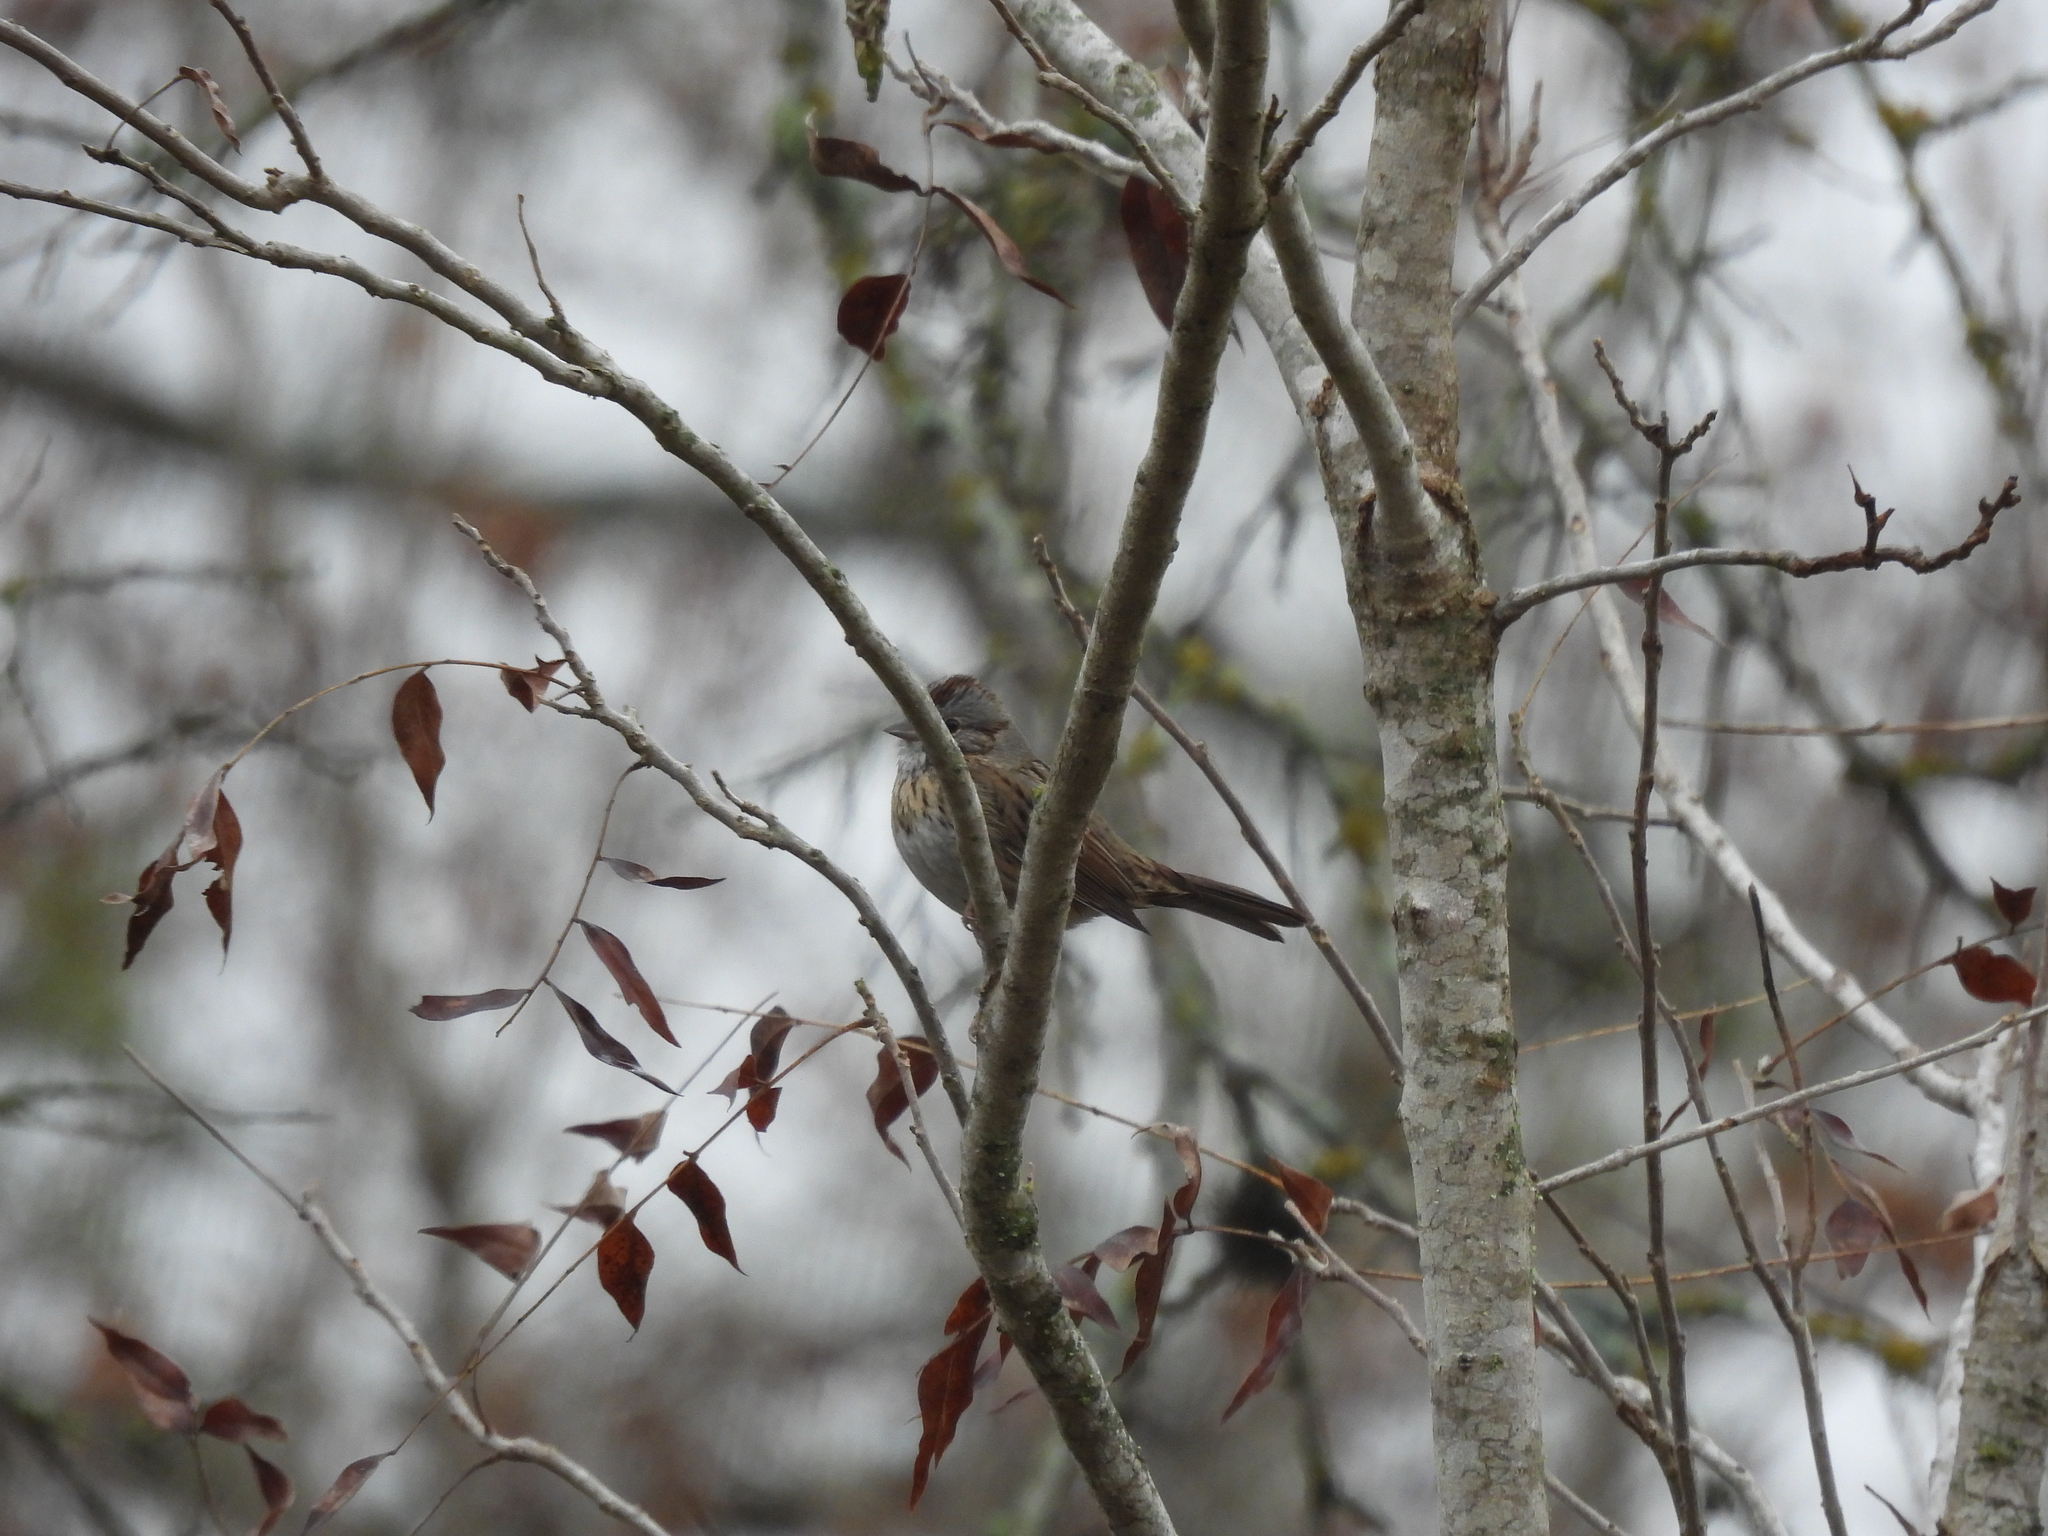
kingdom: Animalia
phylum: Chordata
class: Aves
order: Passeriformes
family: Passerellidae
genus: Melospiza
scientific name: Melospiza lincolnii
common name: Lincoln's sparrow
